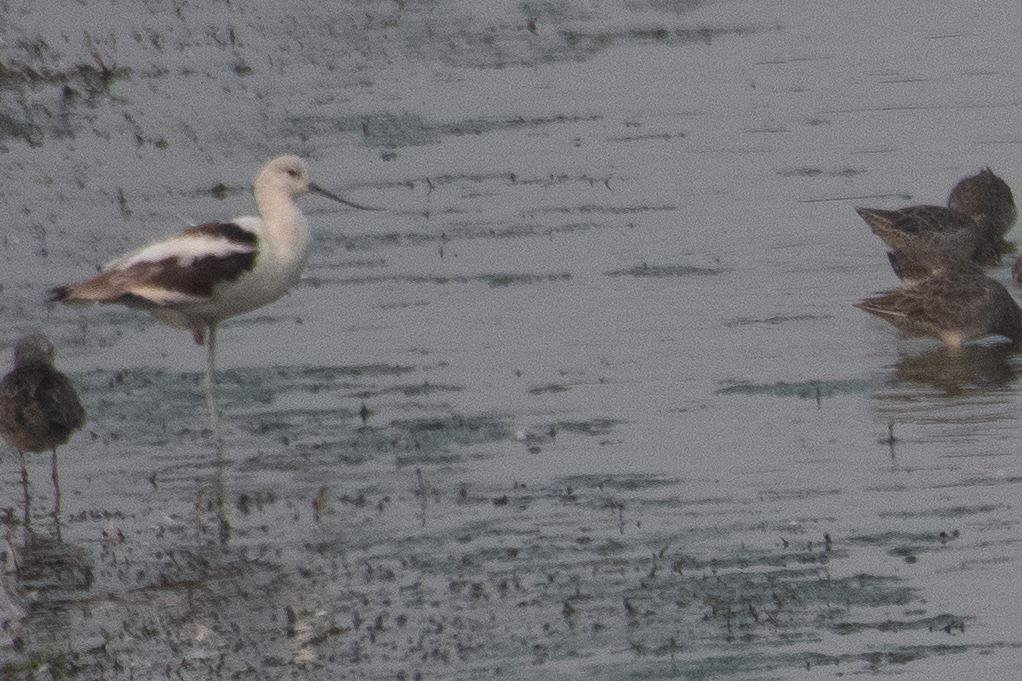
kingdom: Animalia
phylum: Chordata
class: Aves
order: Charadriiformes
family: Recurvirostridae
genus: Recurvirostra
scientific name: Recurvirostra americana
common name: American avocet
